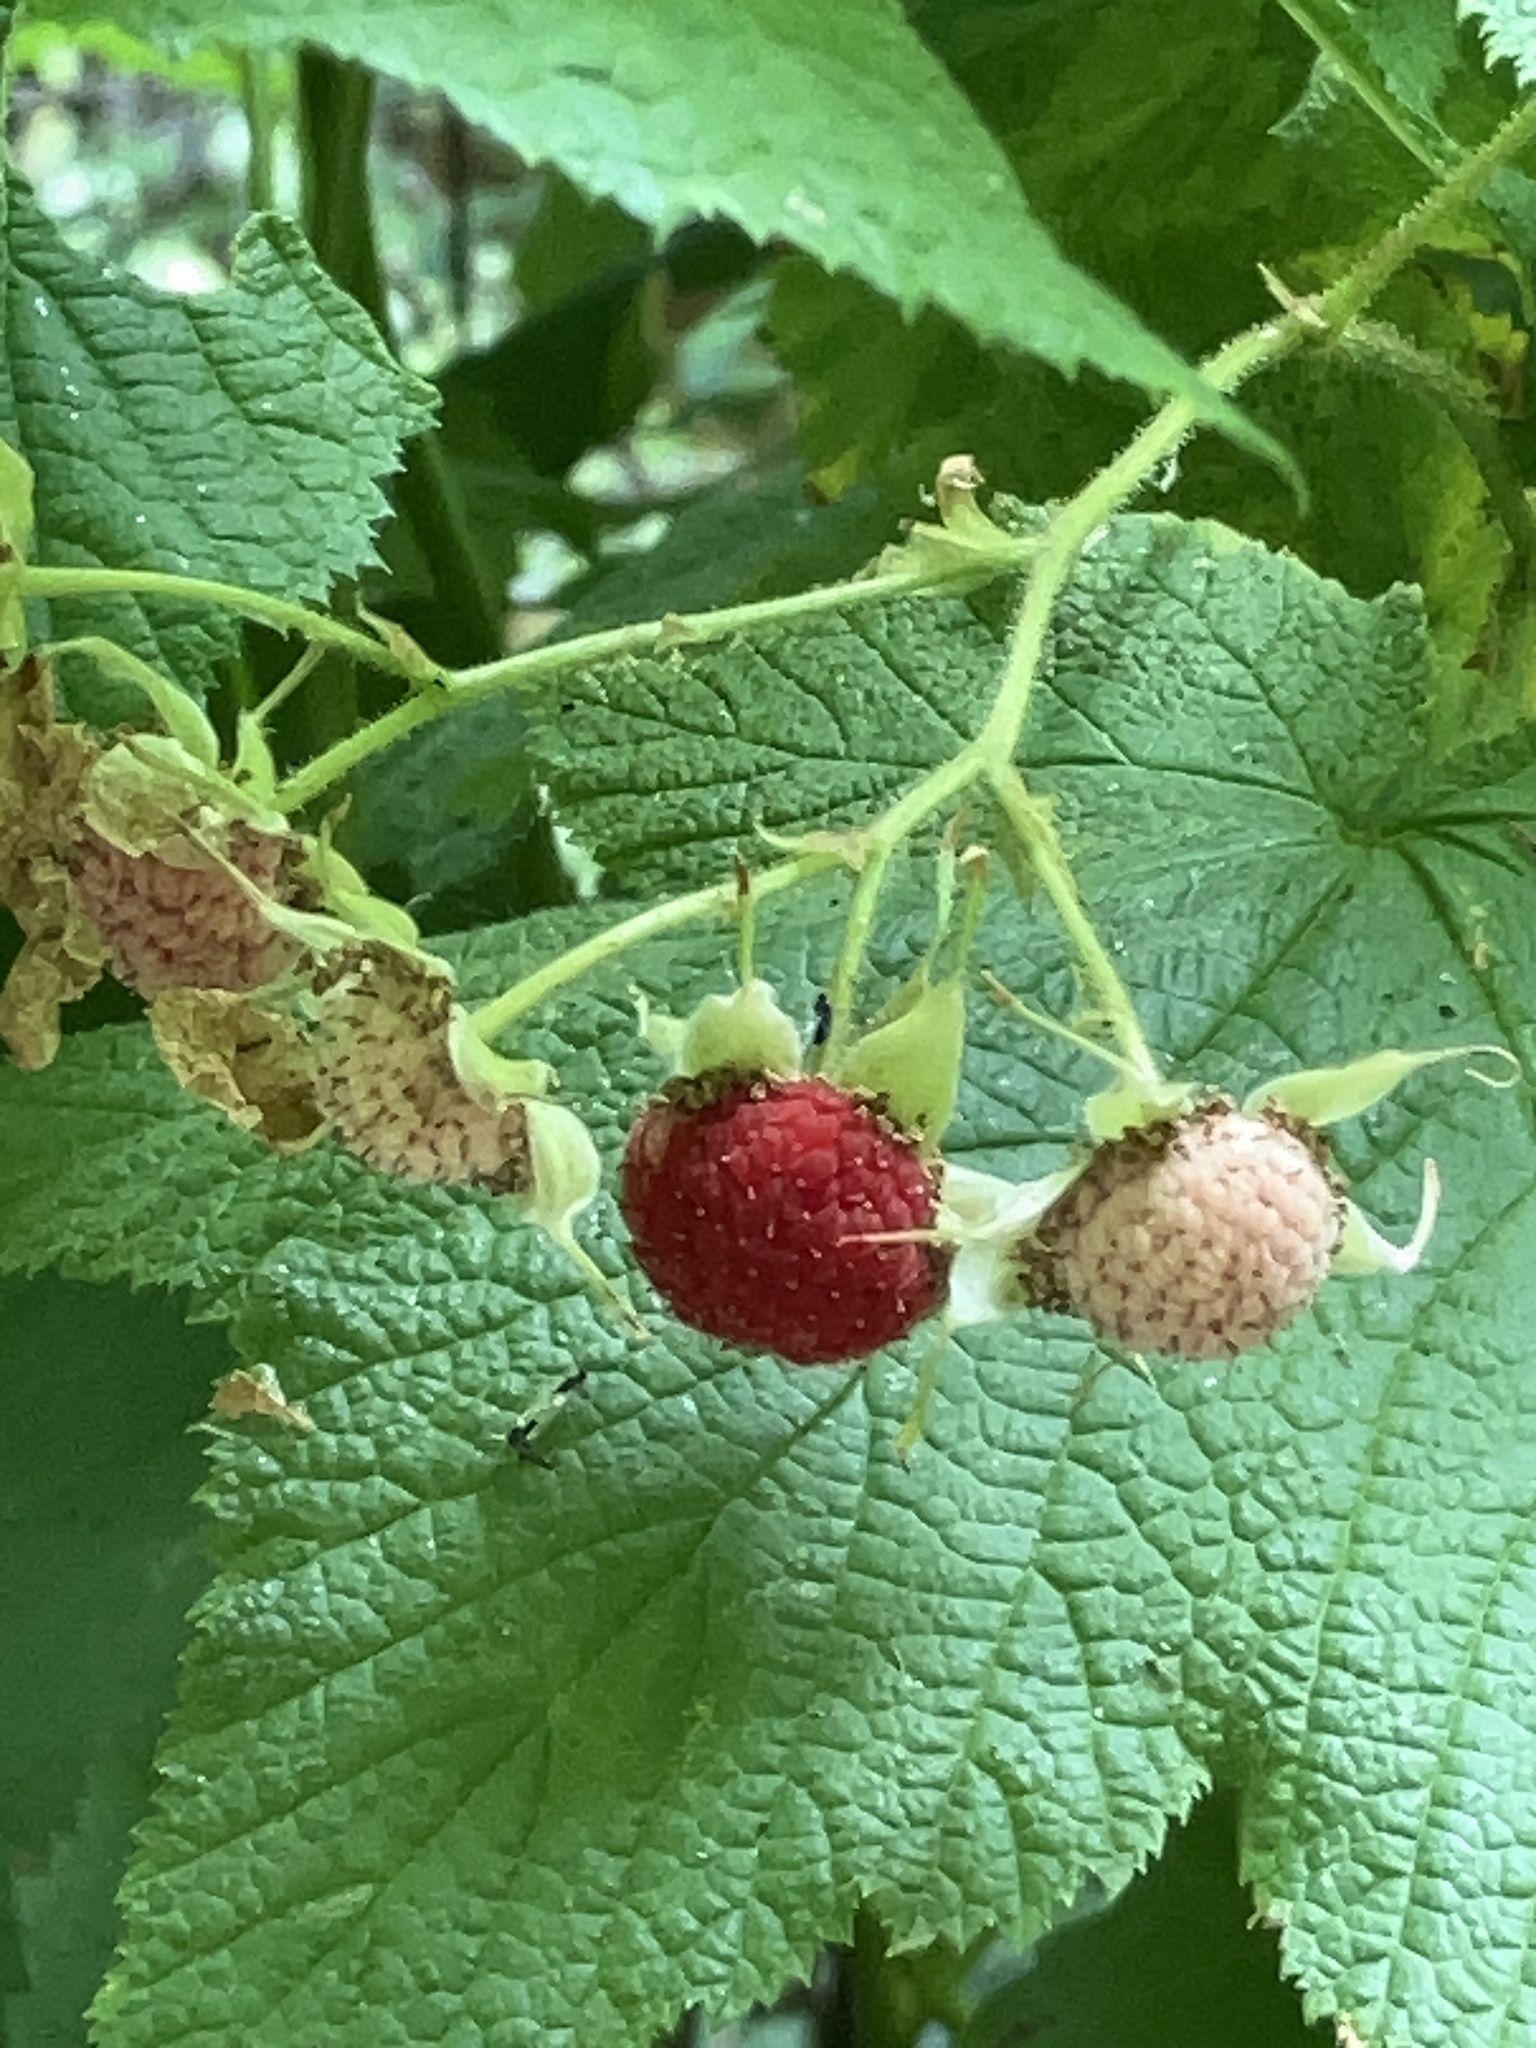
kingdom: Plantae
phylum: Tracheophyta
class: Magnoliopsida
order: Rosales
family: Rosaceae
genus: Rubus
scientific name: Rubus parviflorus
